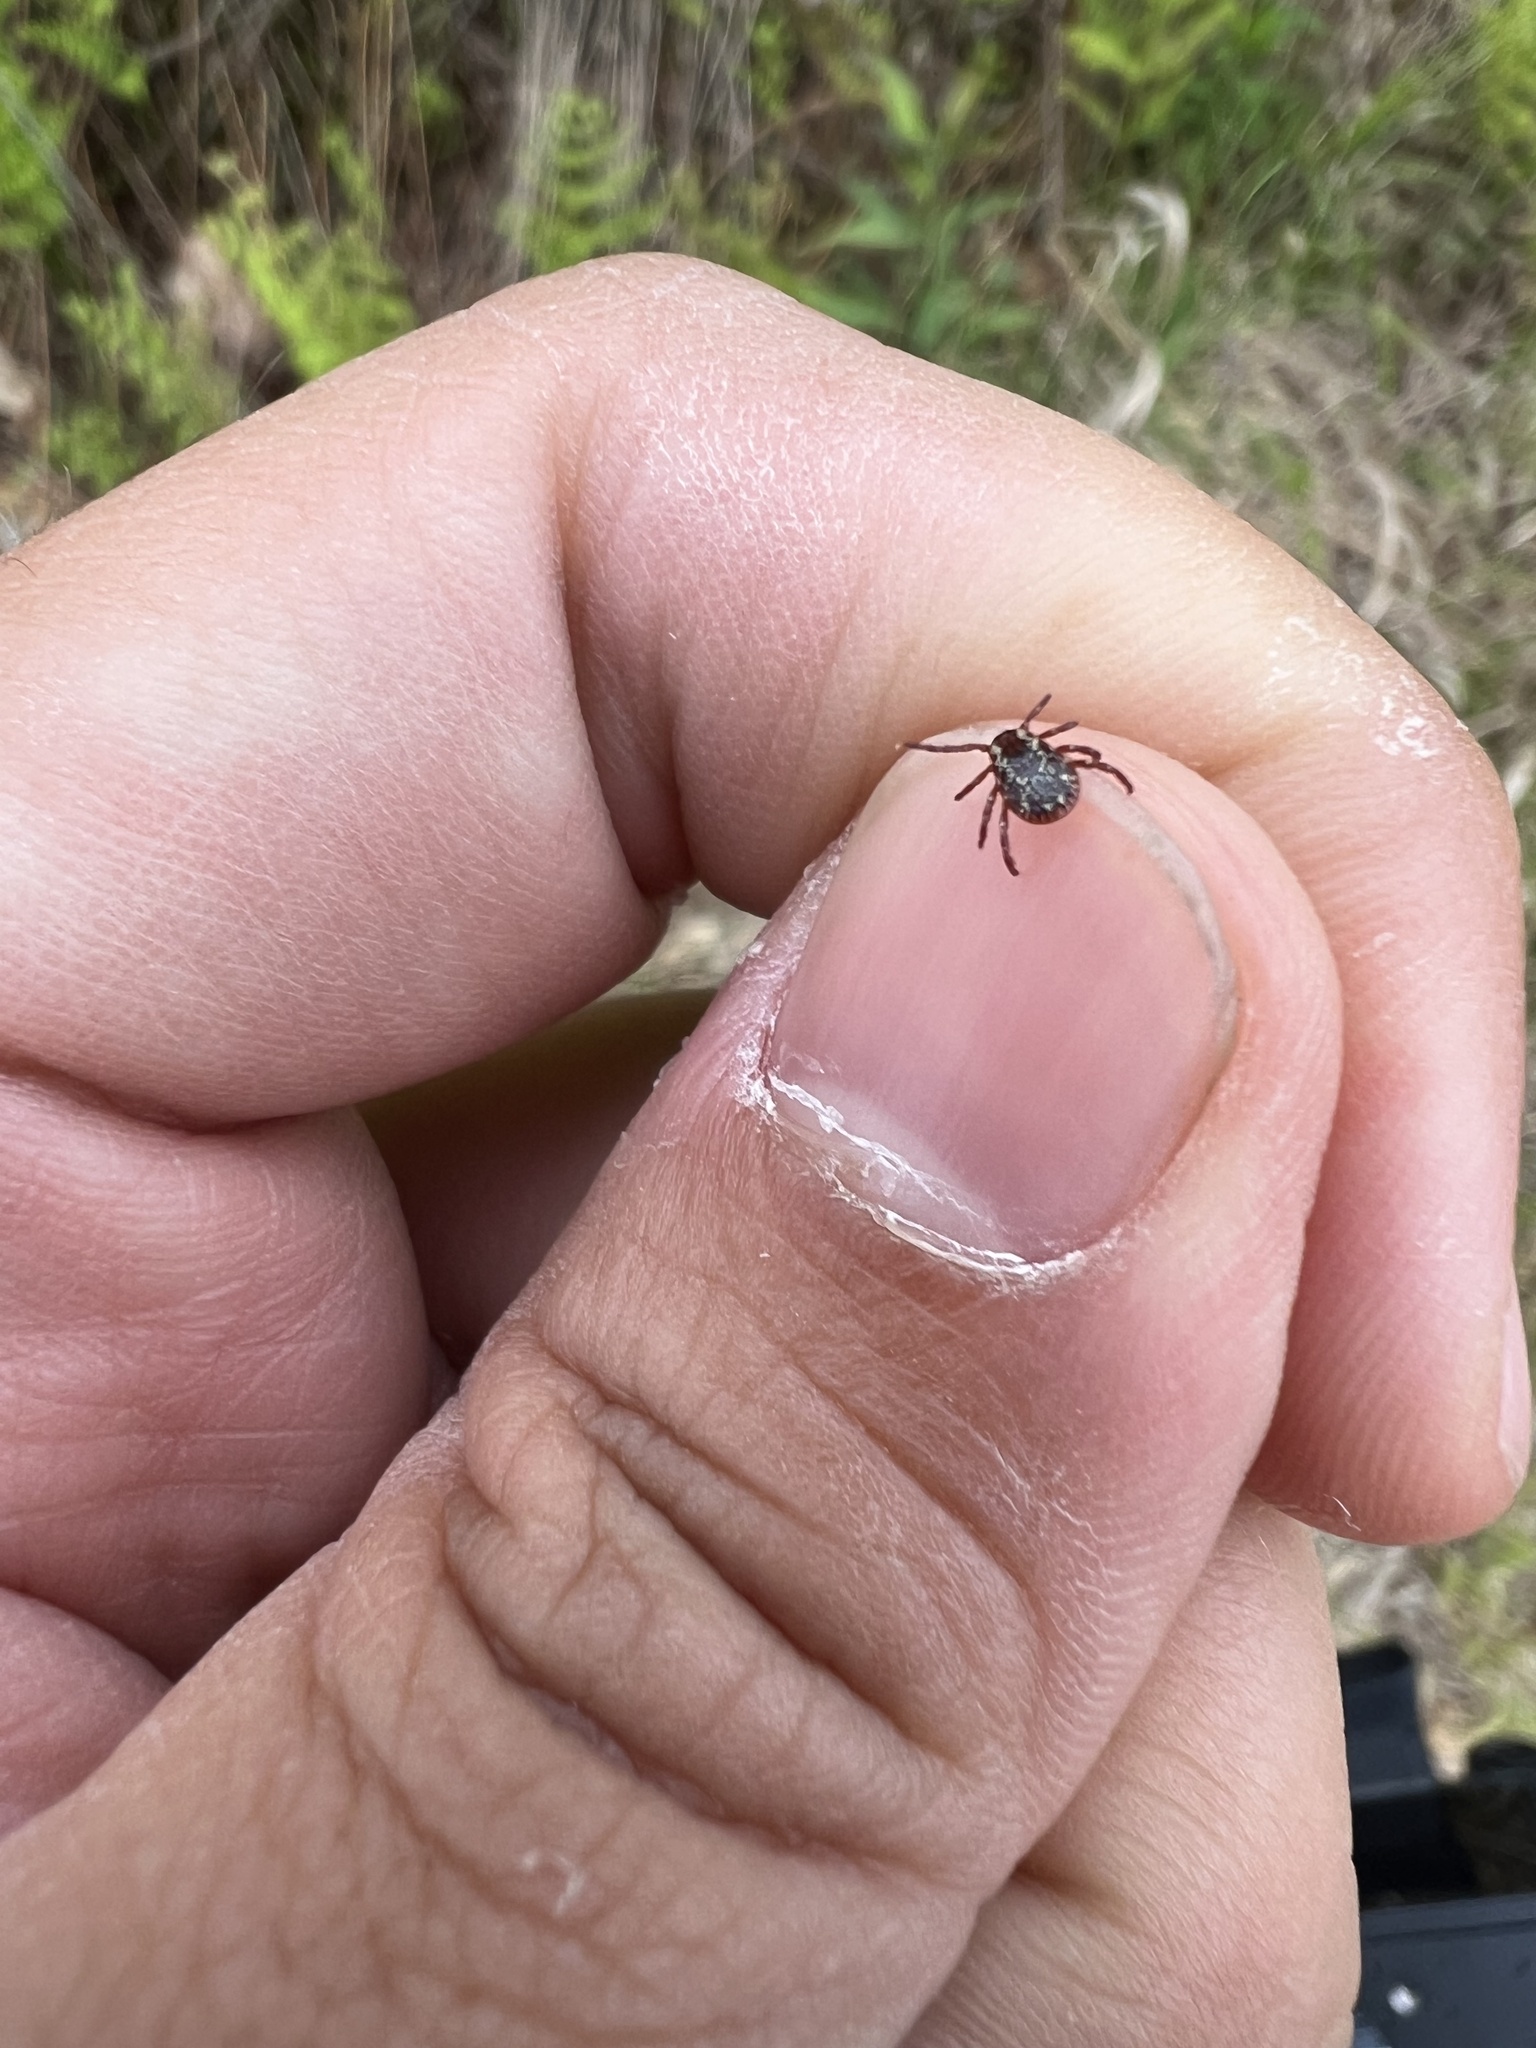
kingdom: Animalia
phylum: Arthropoda
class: Arachnida
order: Ixodida
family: Ixodidae
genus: Dermacentor
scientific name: Dermacentor variabilis
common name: American dog tick
